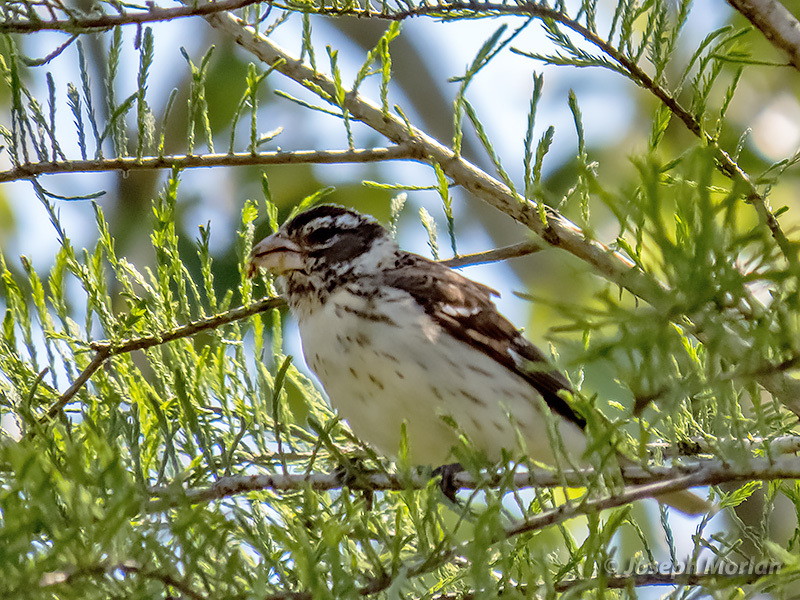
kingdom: Animalia
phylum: Chordata
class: Aves
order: Passeriformes
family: Cardinalidae
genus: Pheucticus
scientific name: Pheucticus ludovicianus
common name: Rose-breasted grosbeak
